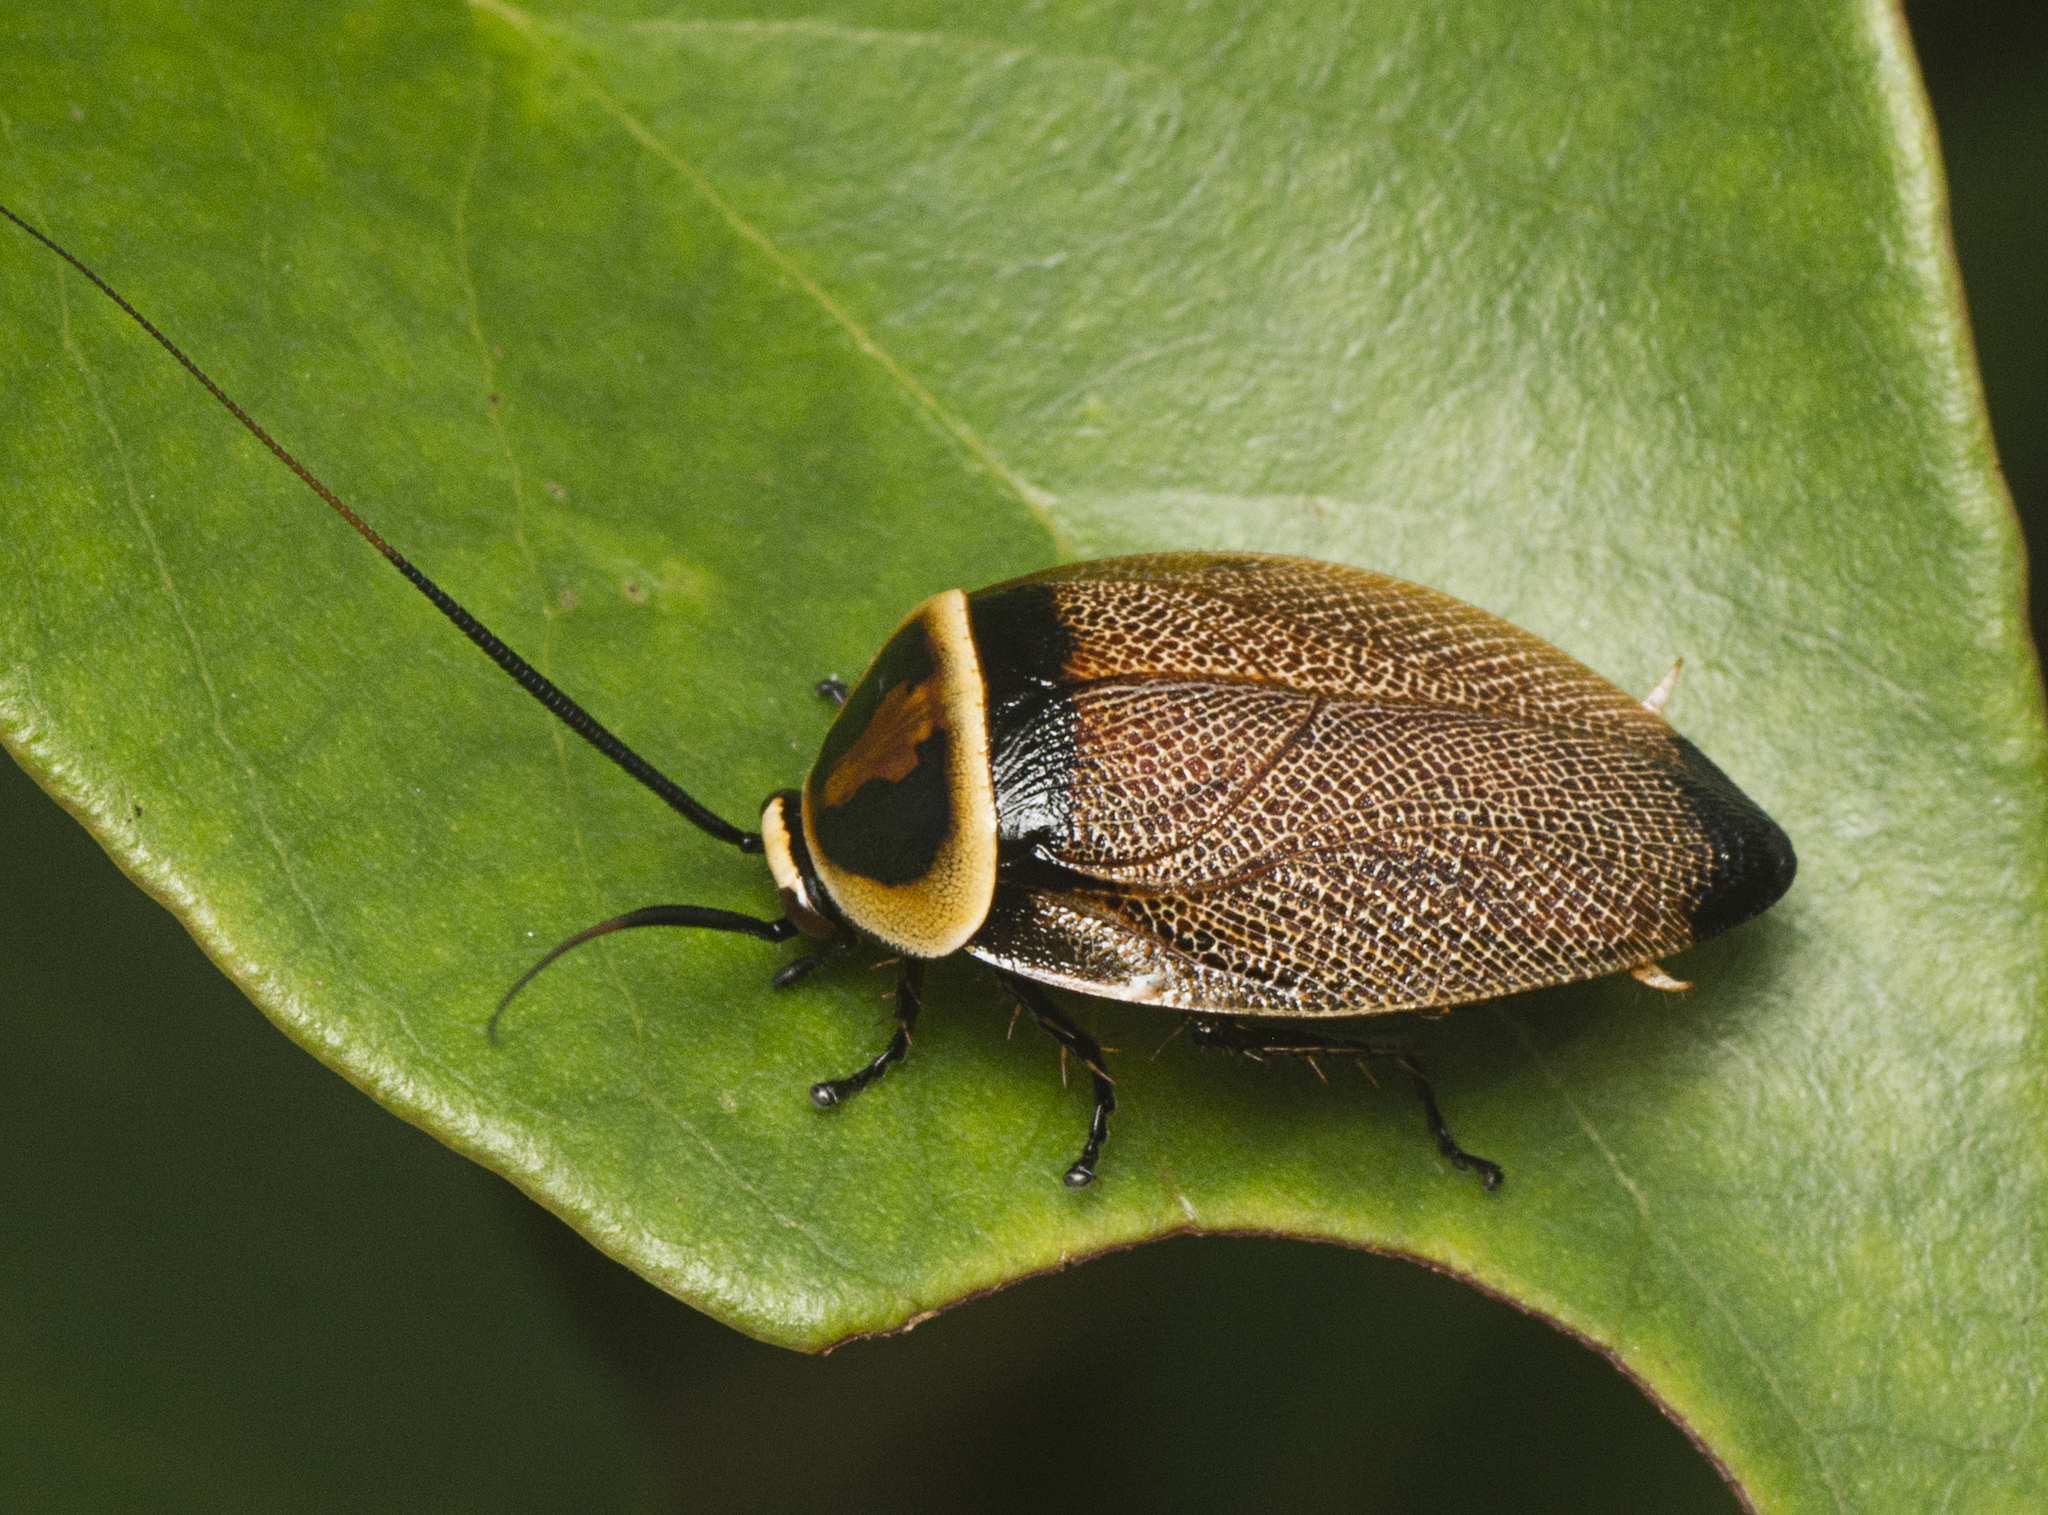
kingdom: Animalia
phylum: Arthropoda
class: Insecta
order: Blattodea
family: Ectobiidae
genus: Ellipsidion
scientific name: Ellipsidion reticulatum
